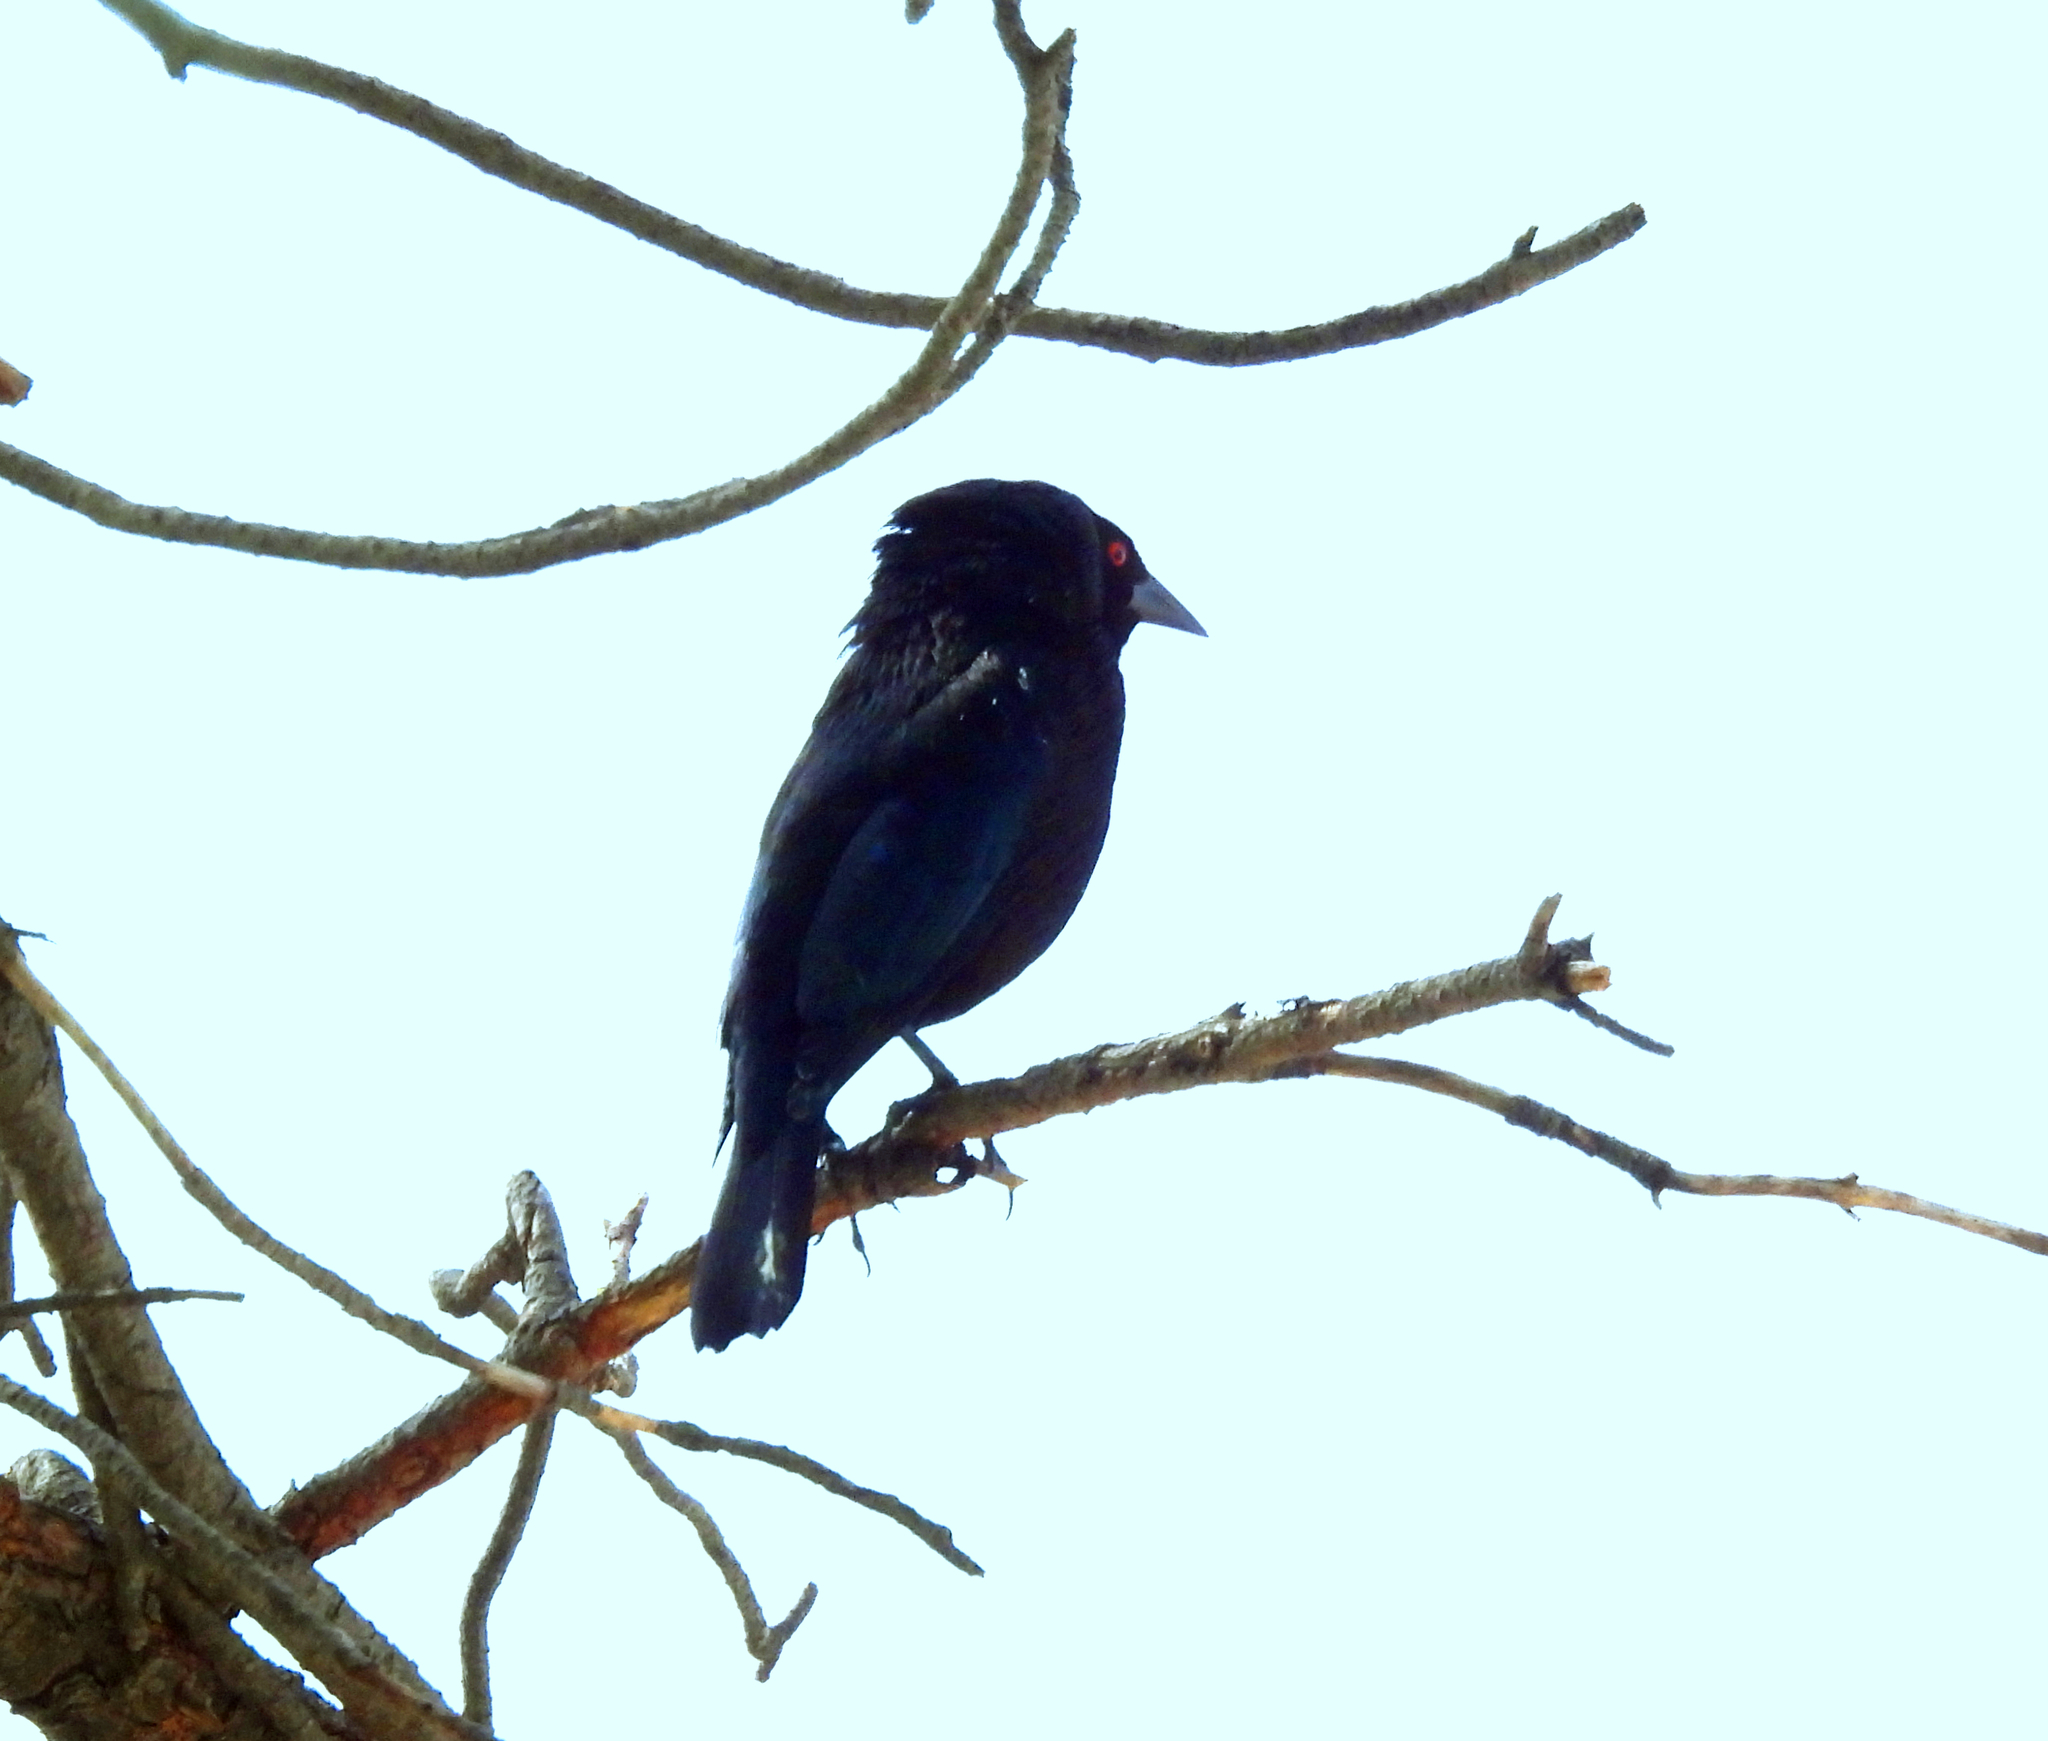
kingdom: Animalia
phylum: Chordata
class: Aves
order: Passeriformes
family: Icteridae
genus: Molothrus
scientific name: Molothrus aeneus
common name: Bronzed cowbird
